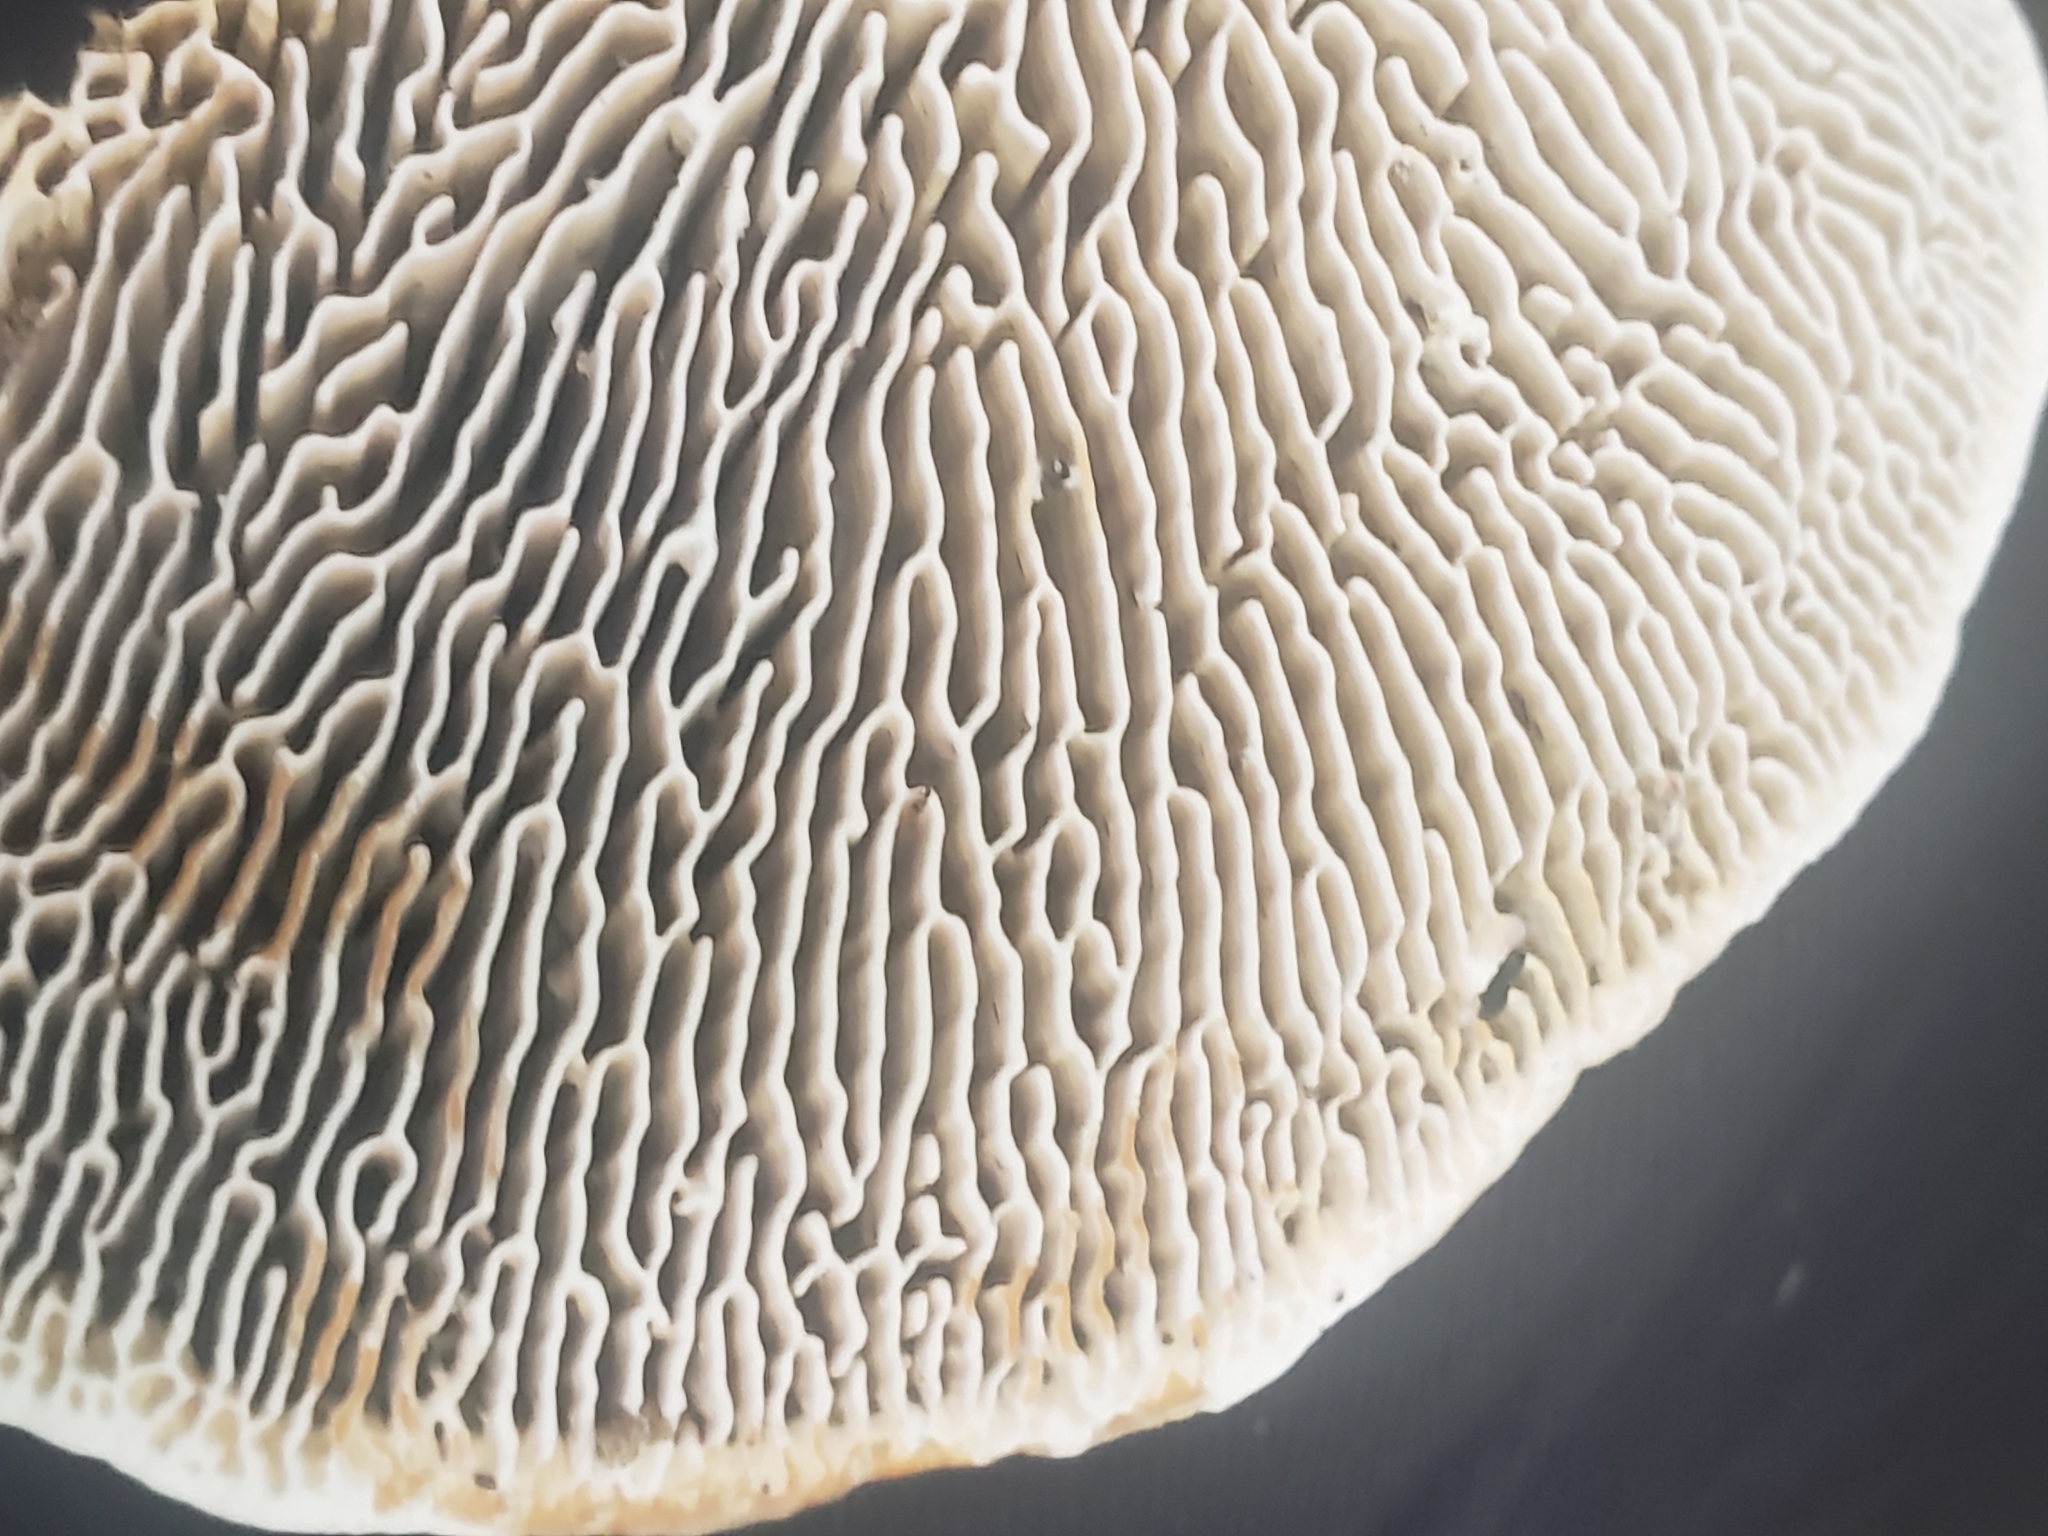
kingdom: Fungi
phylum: Basidiomycota
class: Agaricomycetes
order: Polyporales
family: Fomitopsidaceae
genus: Fomitopsis
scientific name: Fomitopsis
